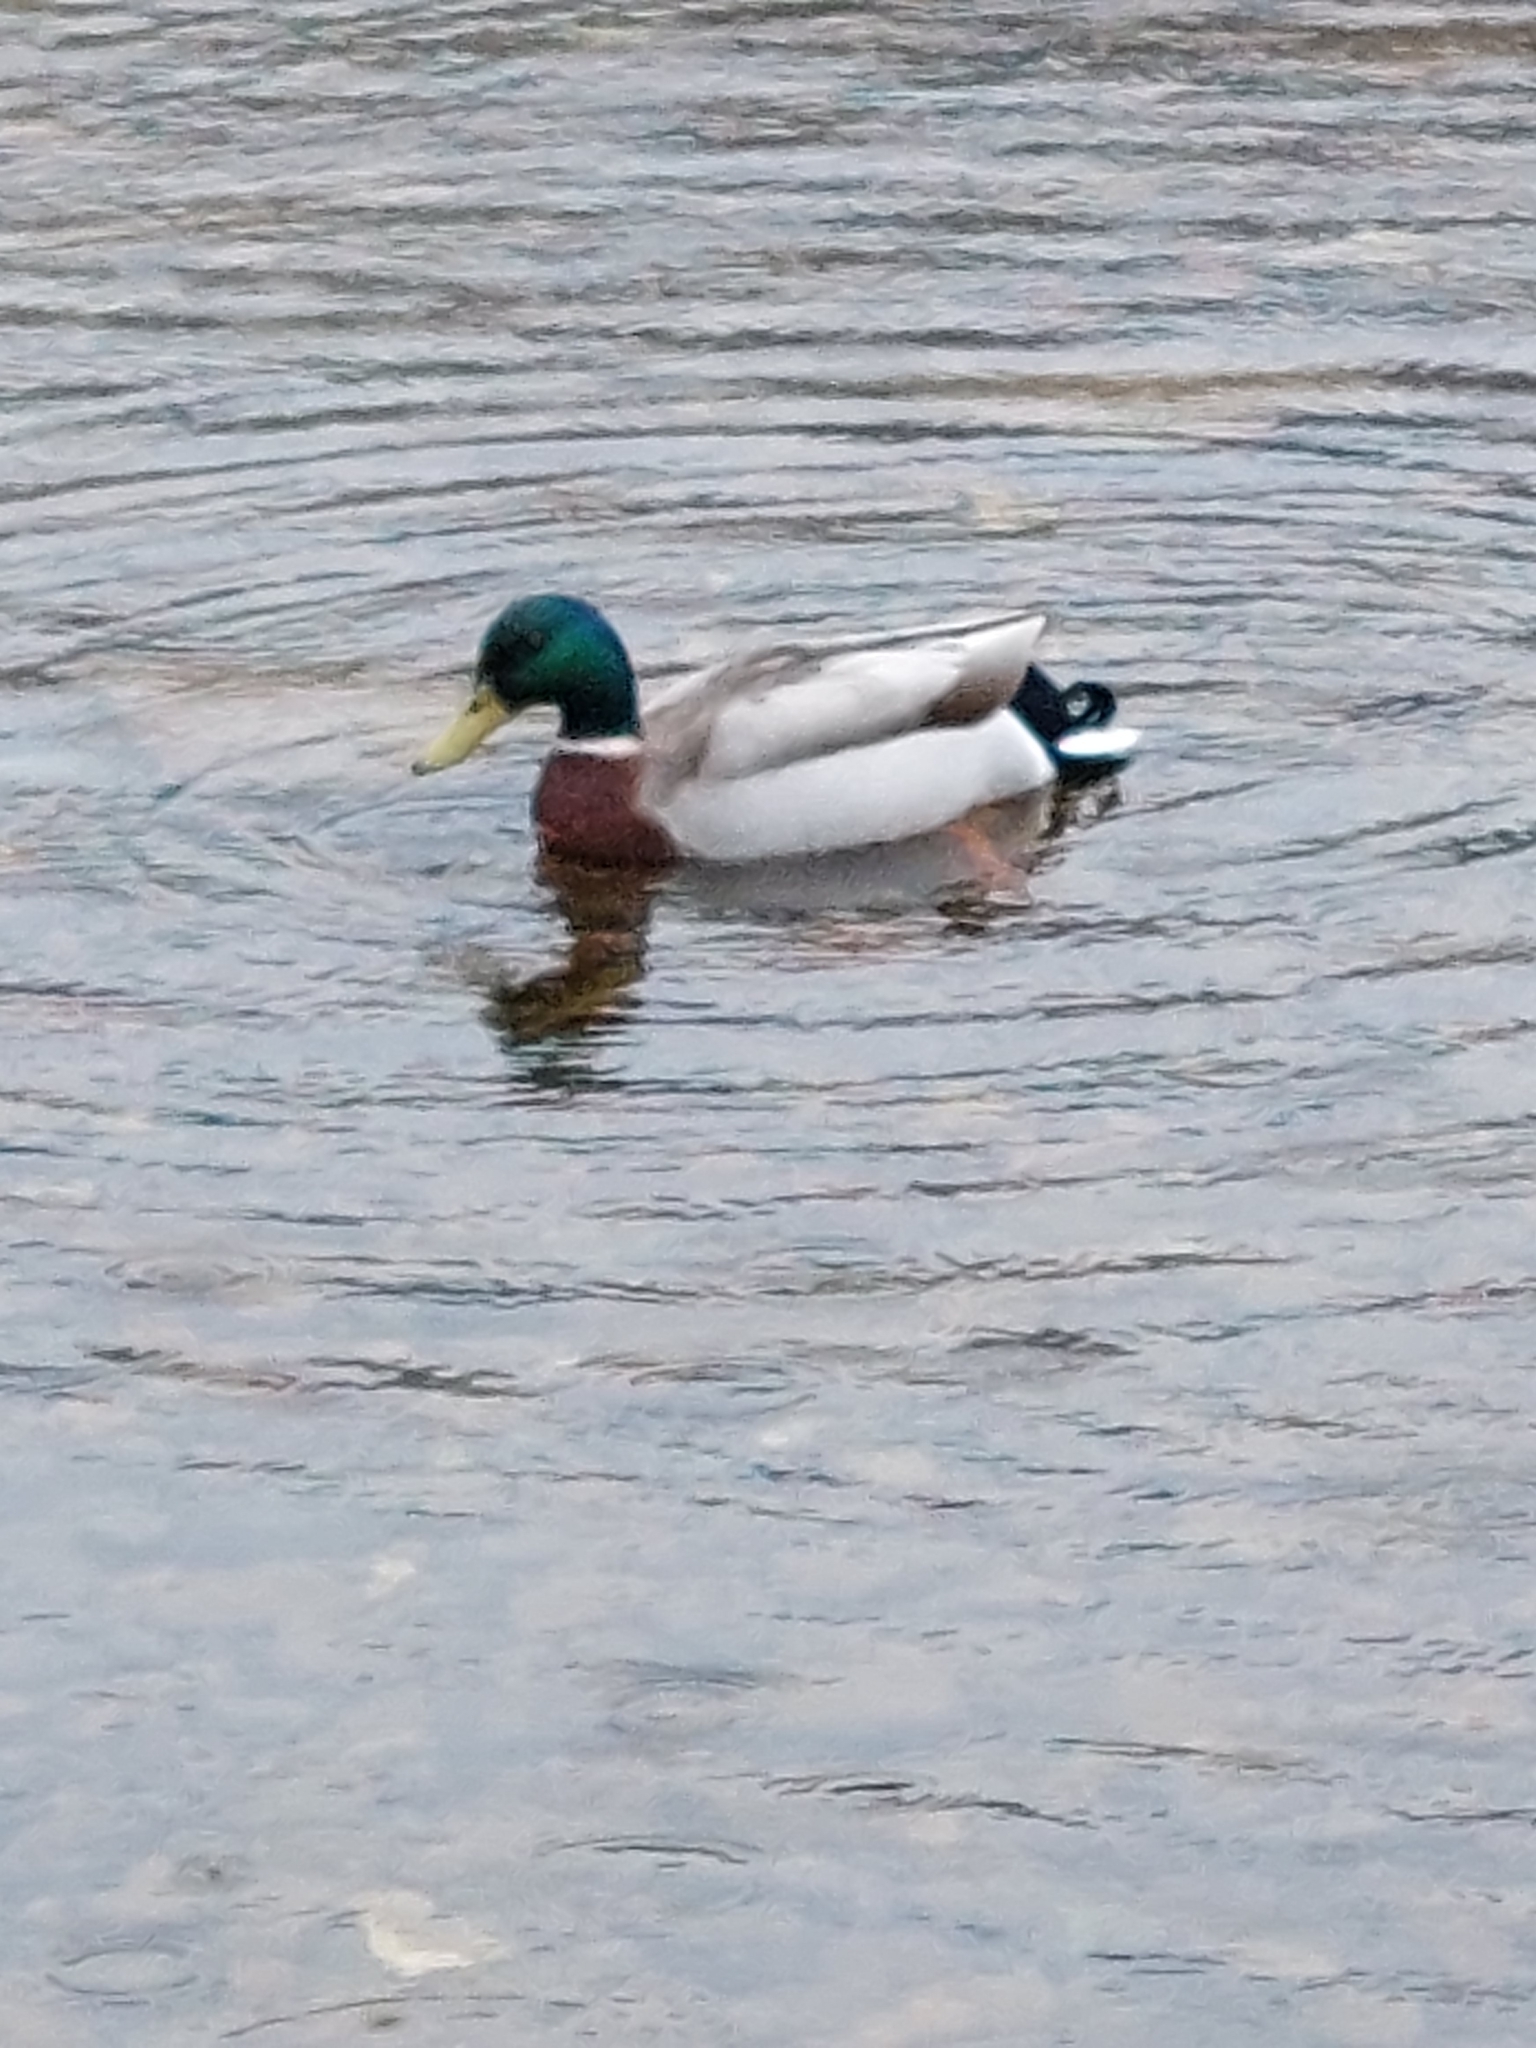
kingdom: Animalia
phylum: Chordata
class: Aves
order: Anseriformes
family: Anatidae
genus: Anas
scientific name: Anas platyrhynchos
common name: Mallard
